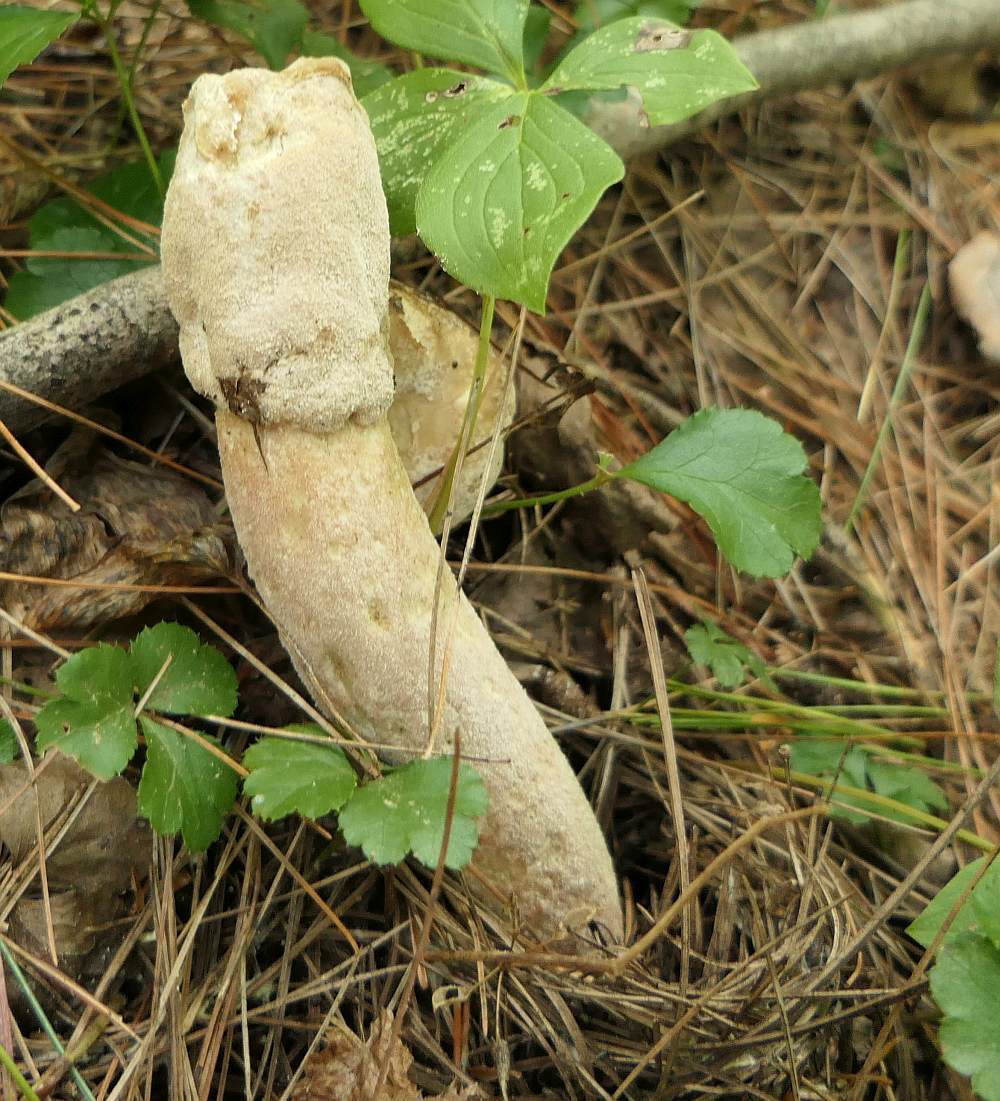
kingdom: Fungi
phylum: Basidiomycota
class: Agaricomycetes
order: Phallales
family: Phallaceae
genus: Phallus
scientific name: Phallus ravenelii
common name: Ravenel's stinkhorn
